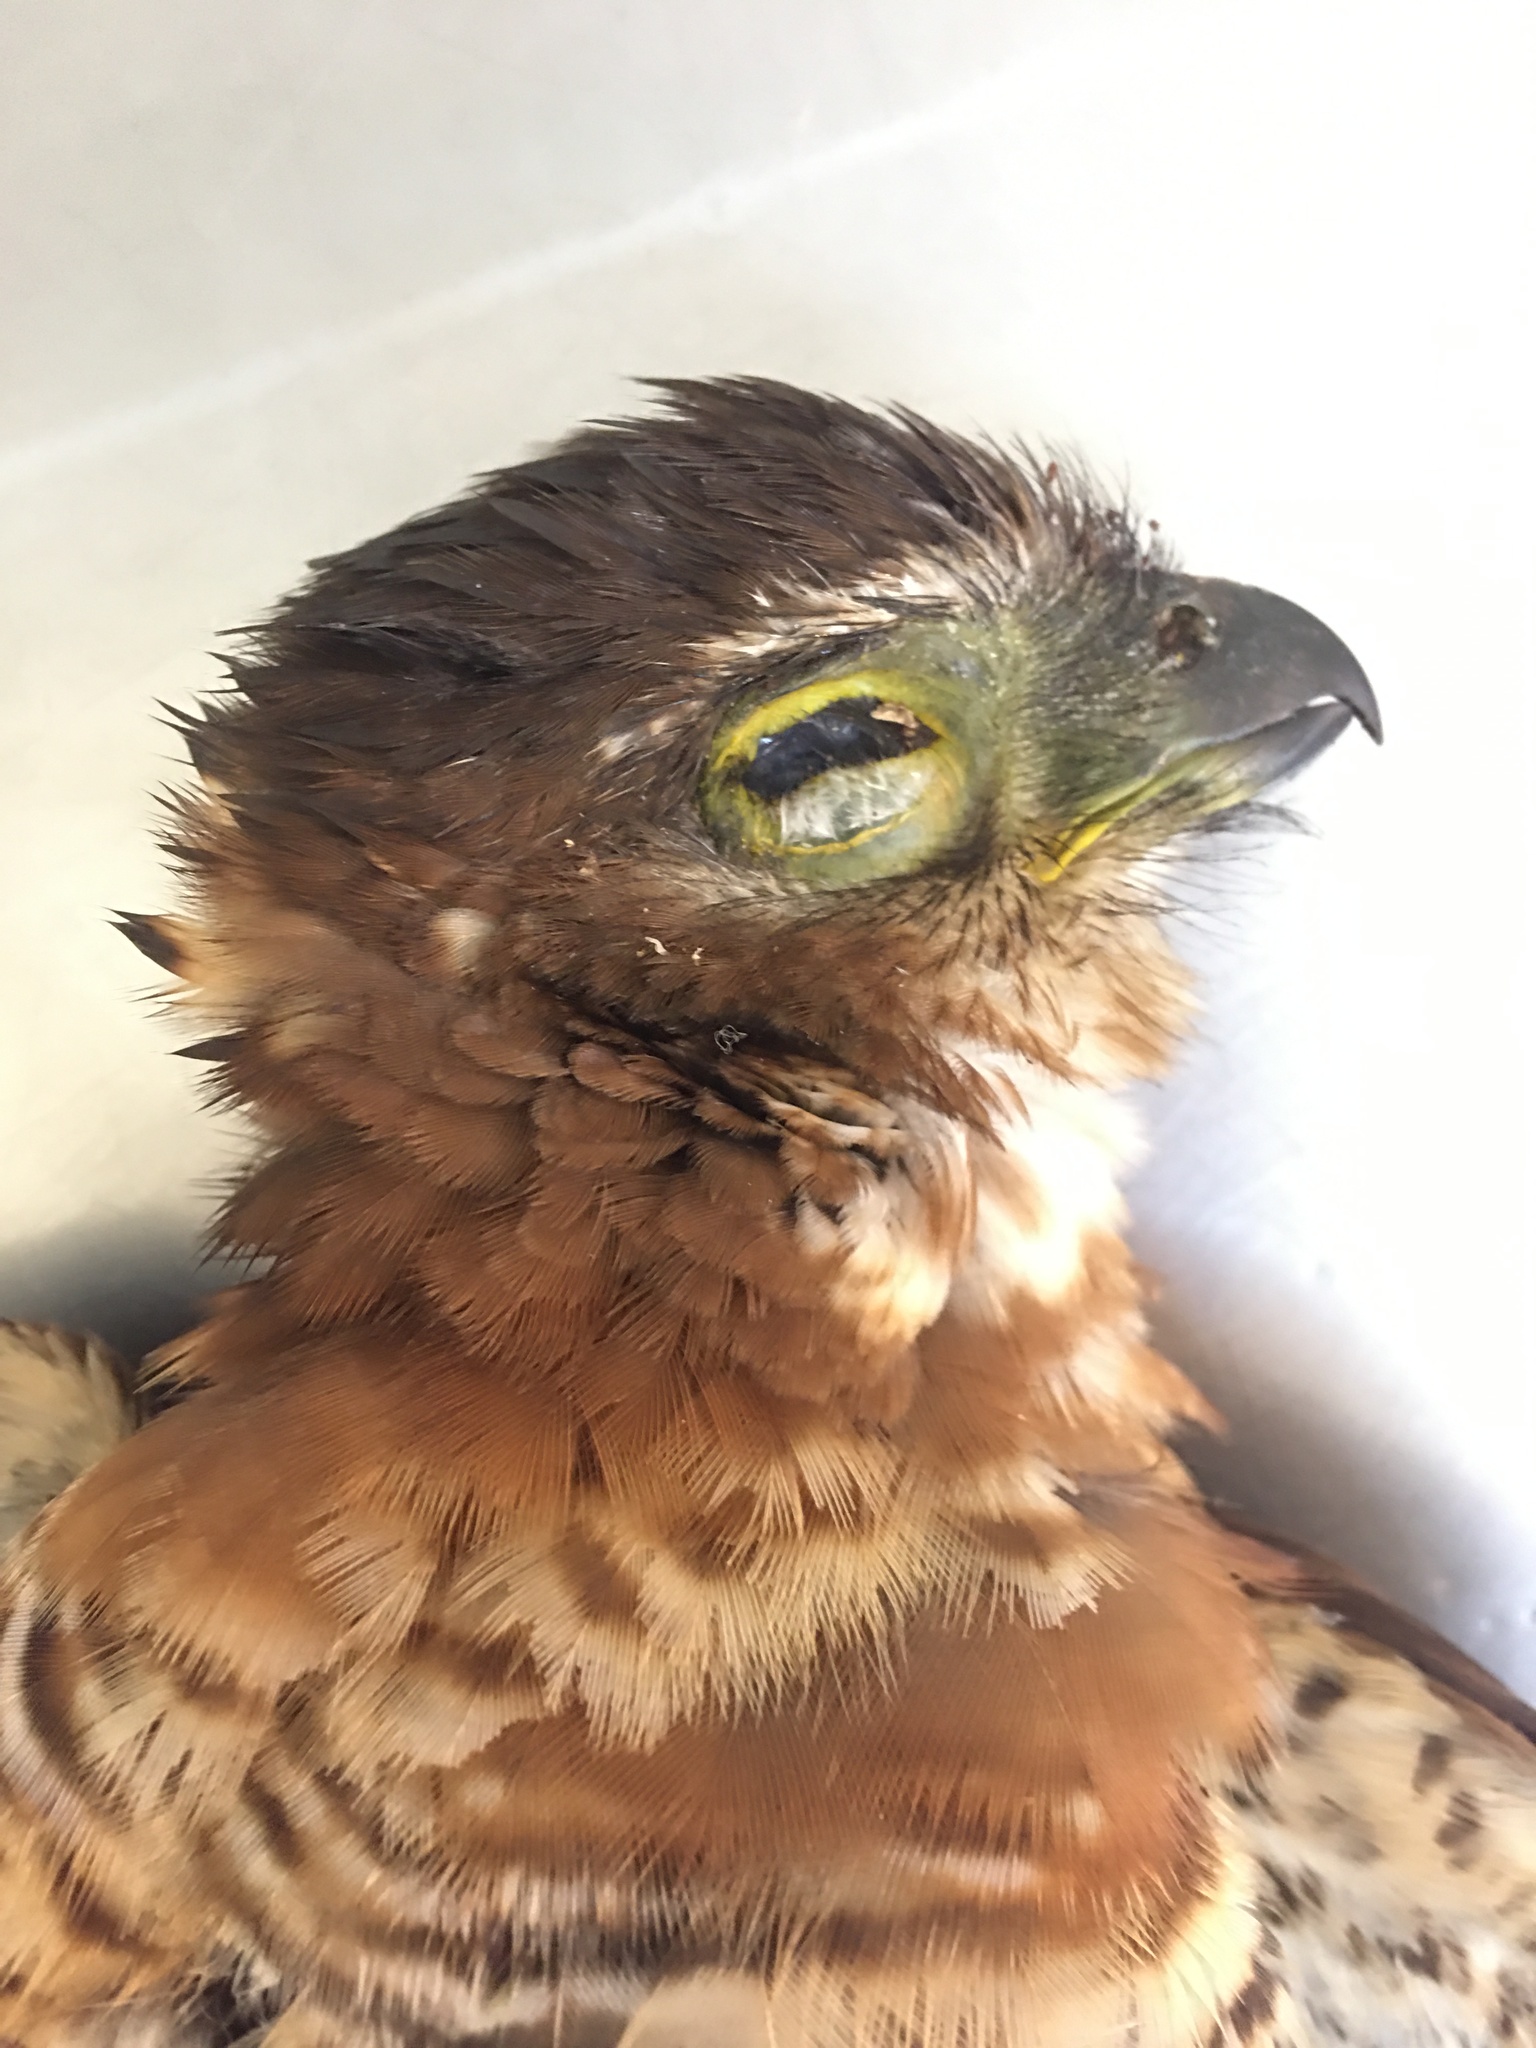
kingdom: Animalia
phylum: Chordata
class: Aves
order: Falconiformes
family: Falconidae
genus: Micrastur
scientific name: Micrastur ruficollis
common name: Barred forest-falcon
